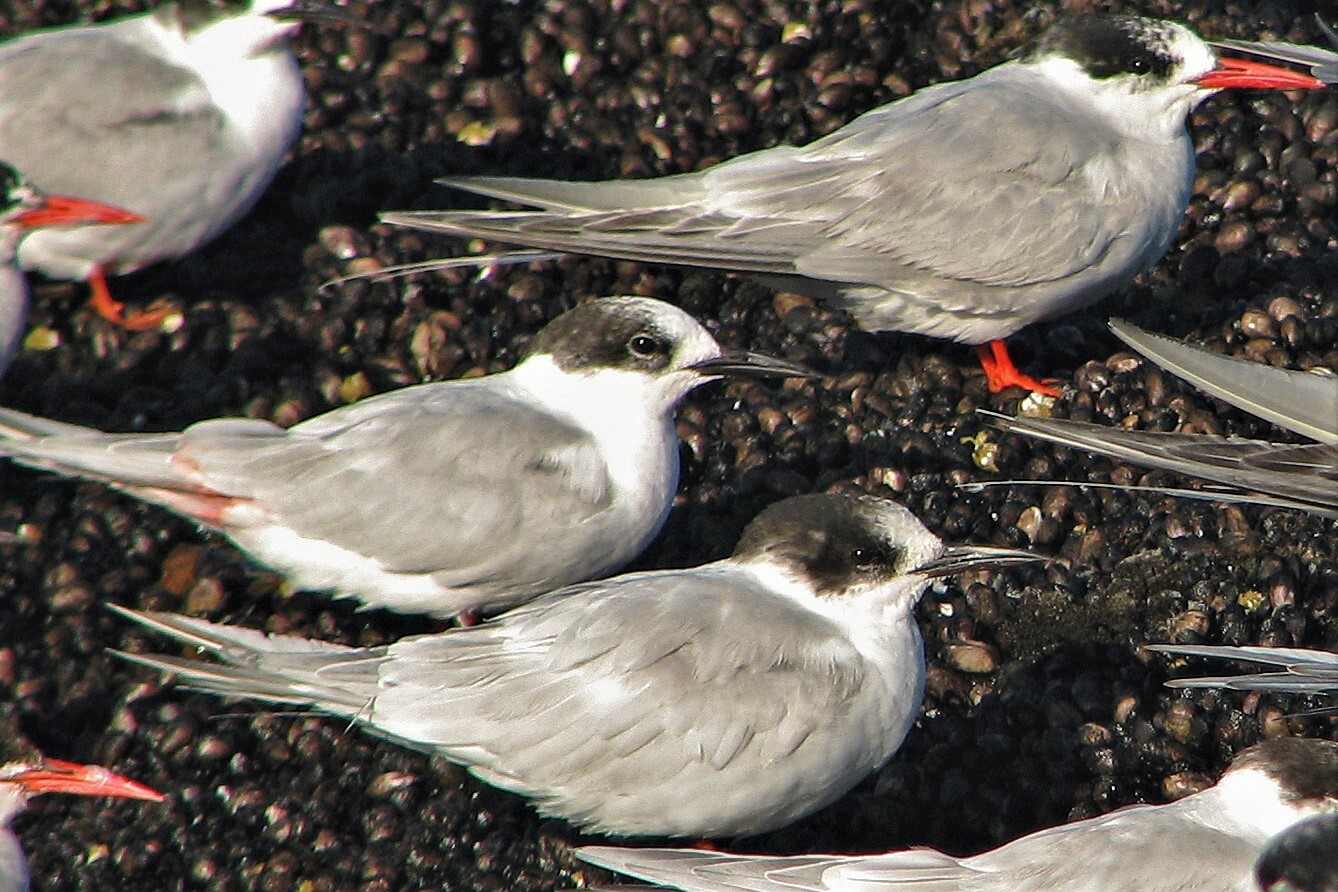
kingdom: Animalia
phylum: Chordata
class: Aves
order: Charadriiformes
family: Laridae
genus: Sterna
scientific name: Sterna hirundinacea
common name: South american tern
